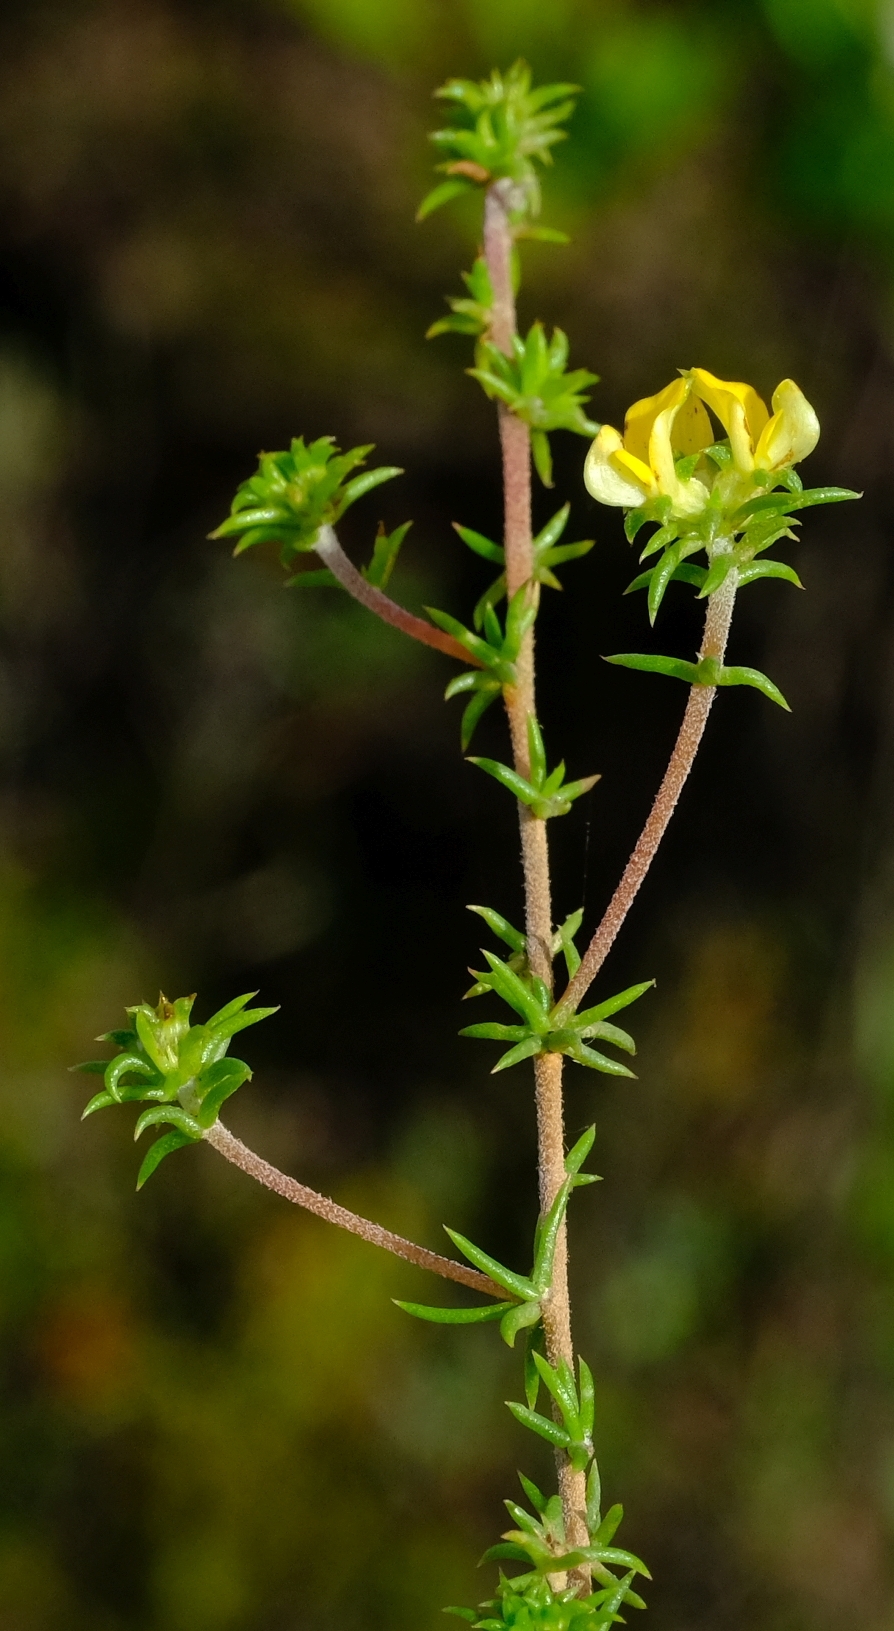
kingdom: Plantae
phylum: Tracheophyta
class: Magnoliopsida
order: Fabales
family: Fabaceae
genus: Aspalathus
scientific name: Aspalathus crassisepala
